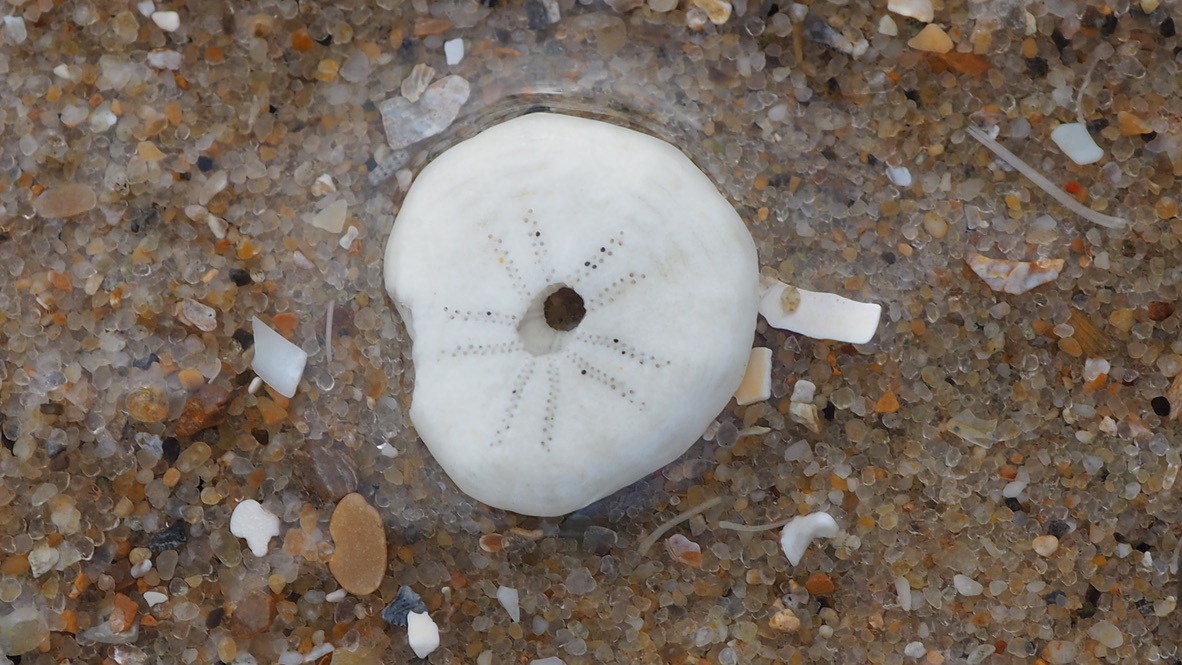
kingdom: Animalia
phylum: Echinodermata
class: Echinoidea
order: Echinolampadacea
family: Fibulariidae
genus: Echinocyamus
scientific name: Echinocyamus pusillus
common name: Broad beau of sea
